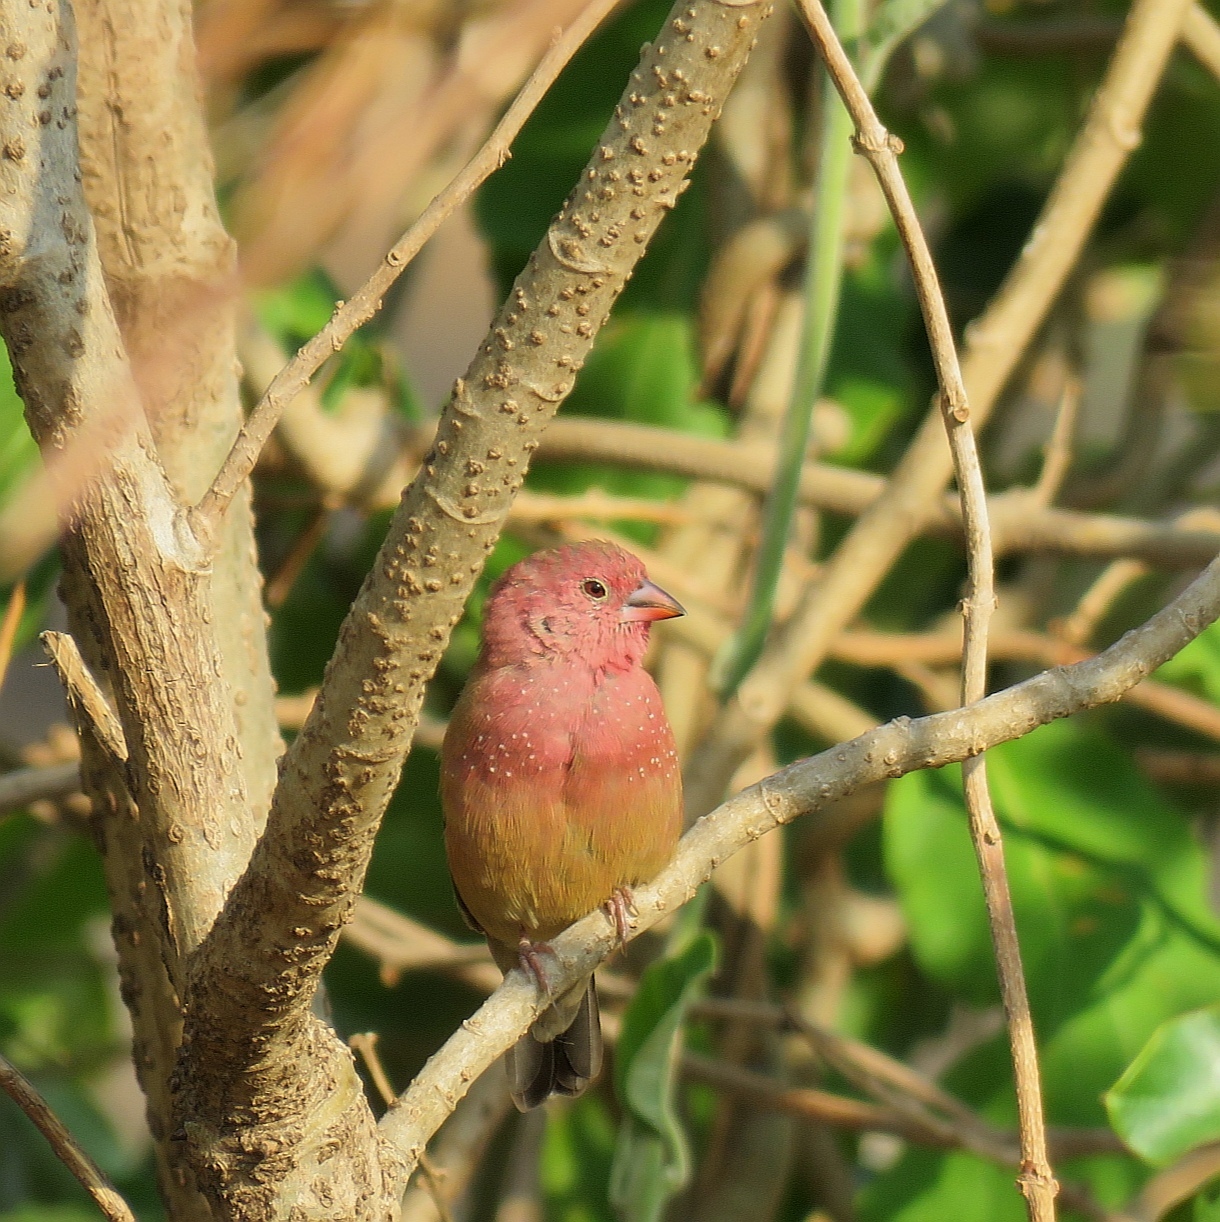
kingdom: Animalia
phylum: Chordata
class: Aves
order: Passeriformes
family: Estrildidae
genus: Lagonosticta
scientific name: Lagonosticta senegala
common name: Red-billed firefinch
